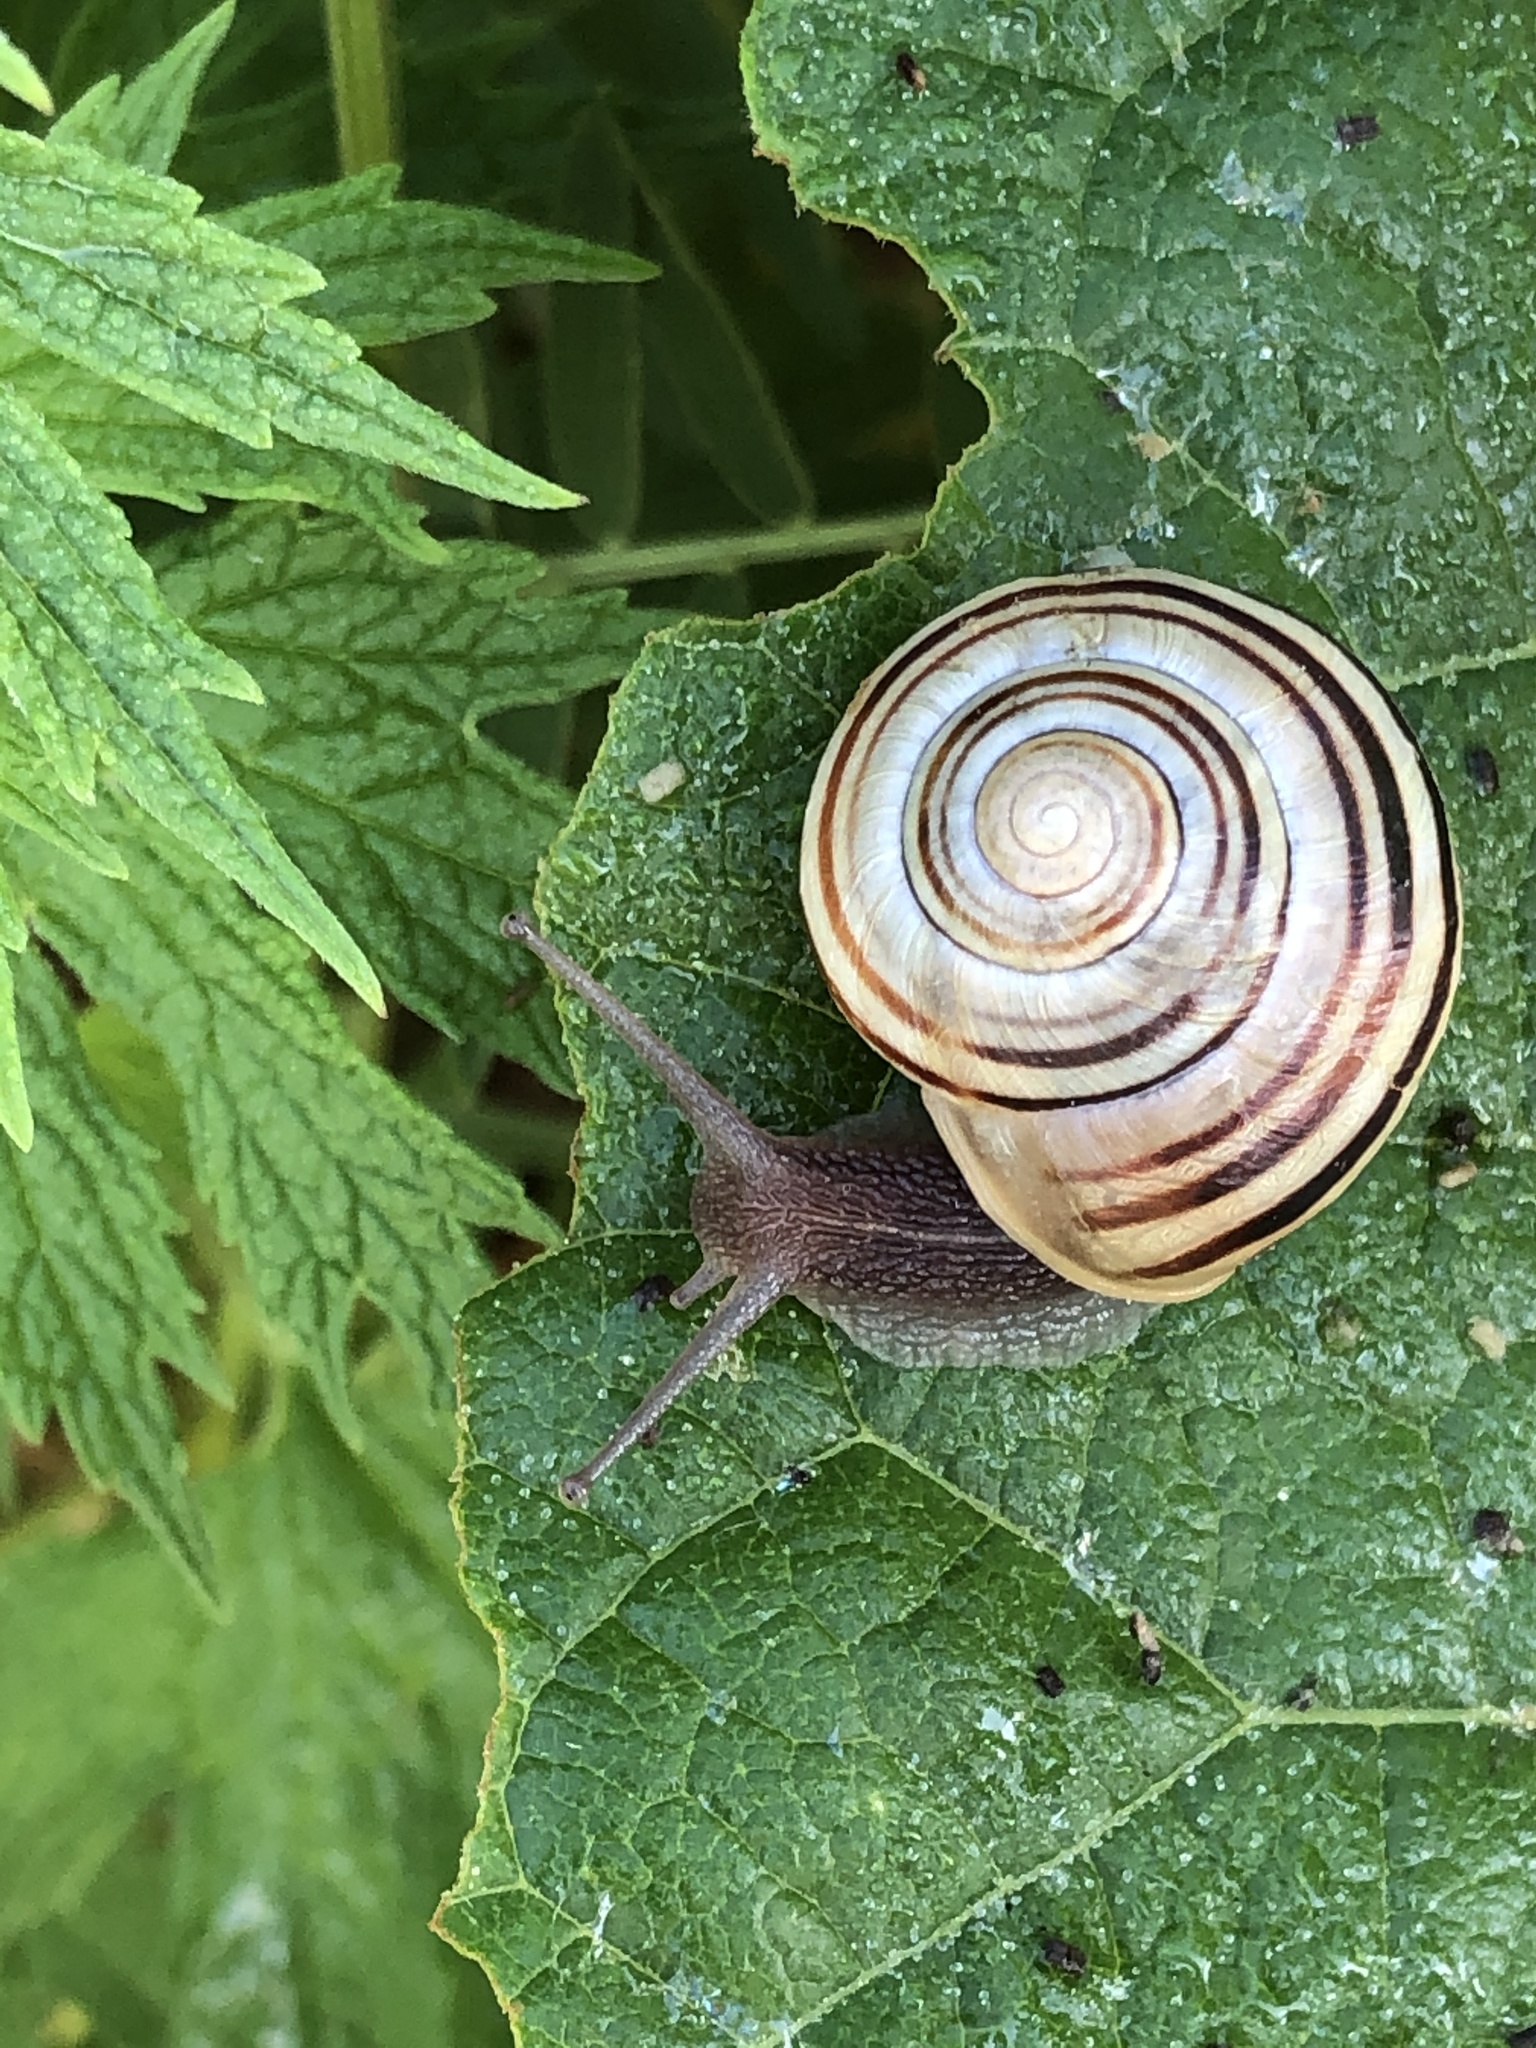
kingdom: Animalia
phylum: Mollusca
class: Gastropoda
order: Stylommatophora
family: Helicidae
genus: Cepaea
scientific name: Cepaea
